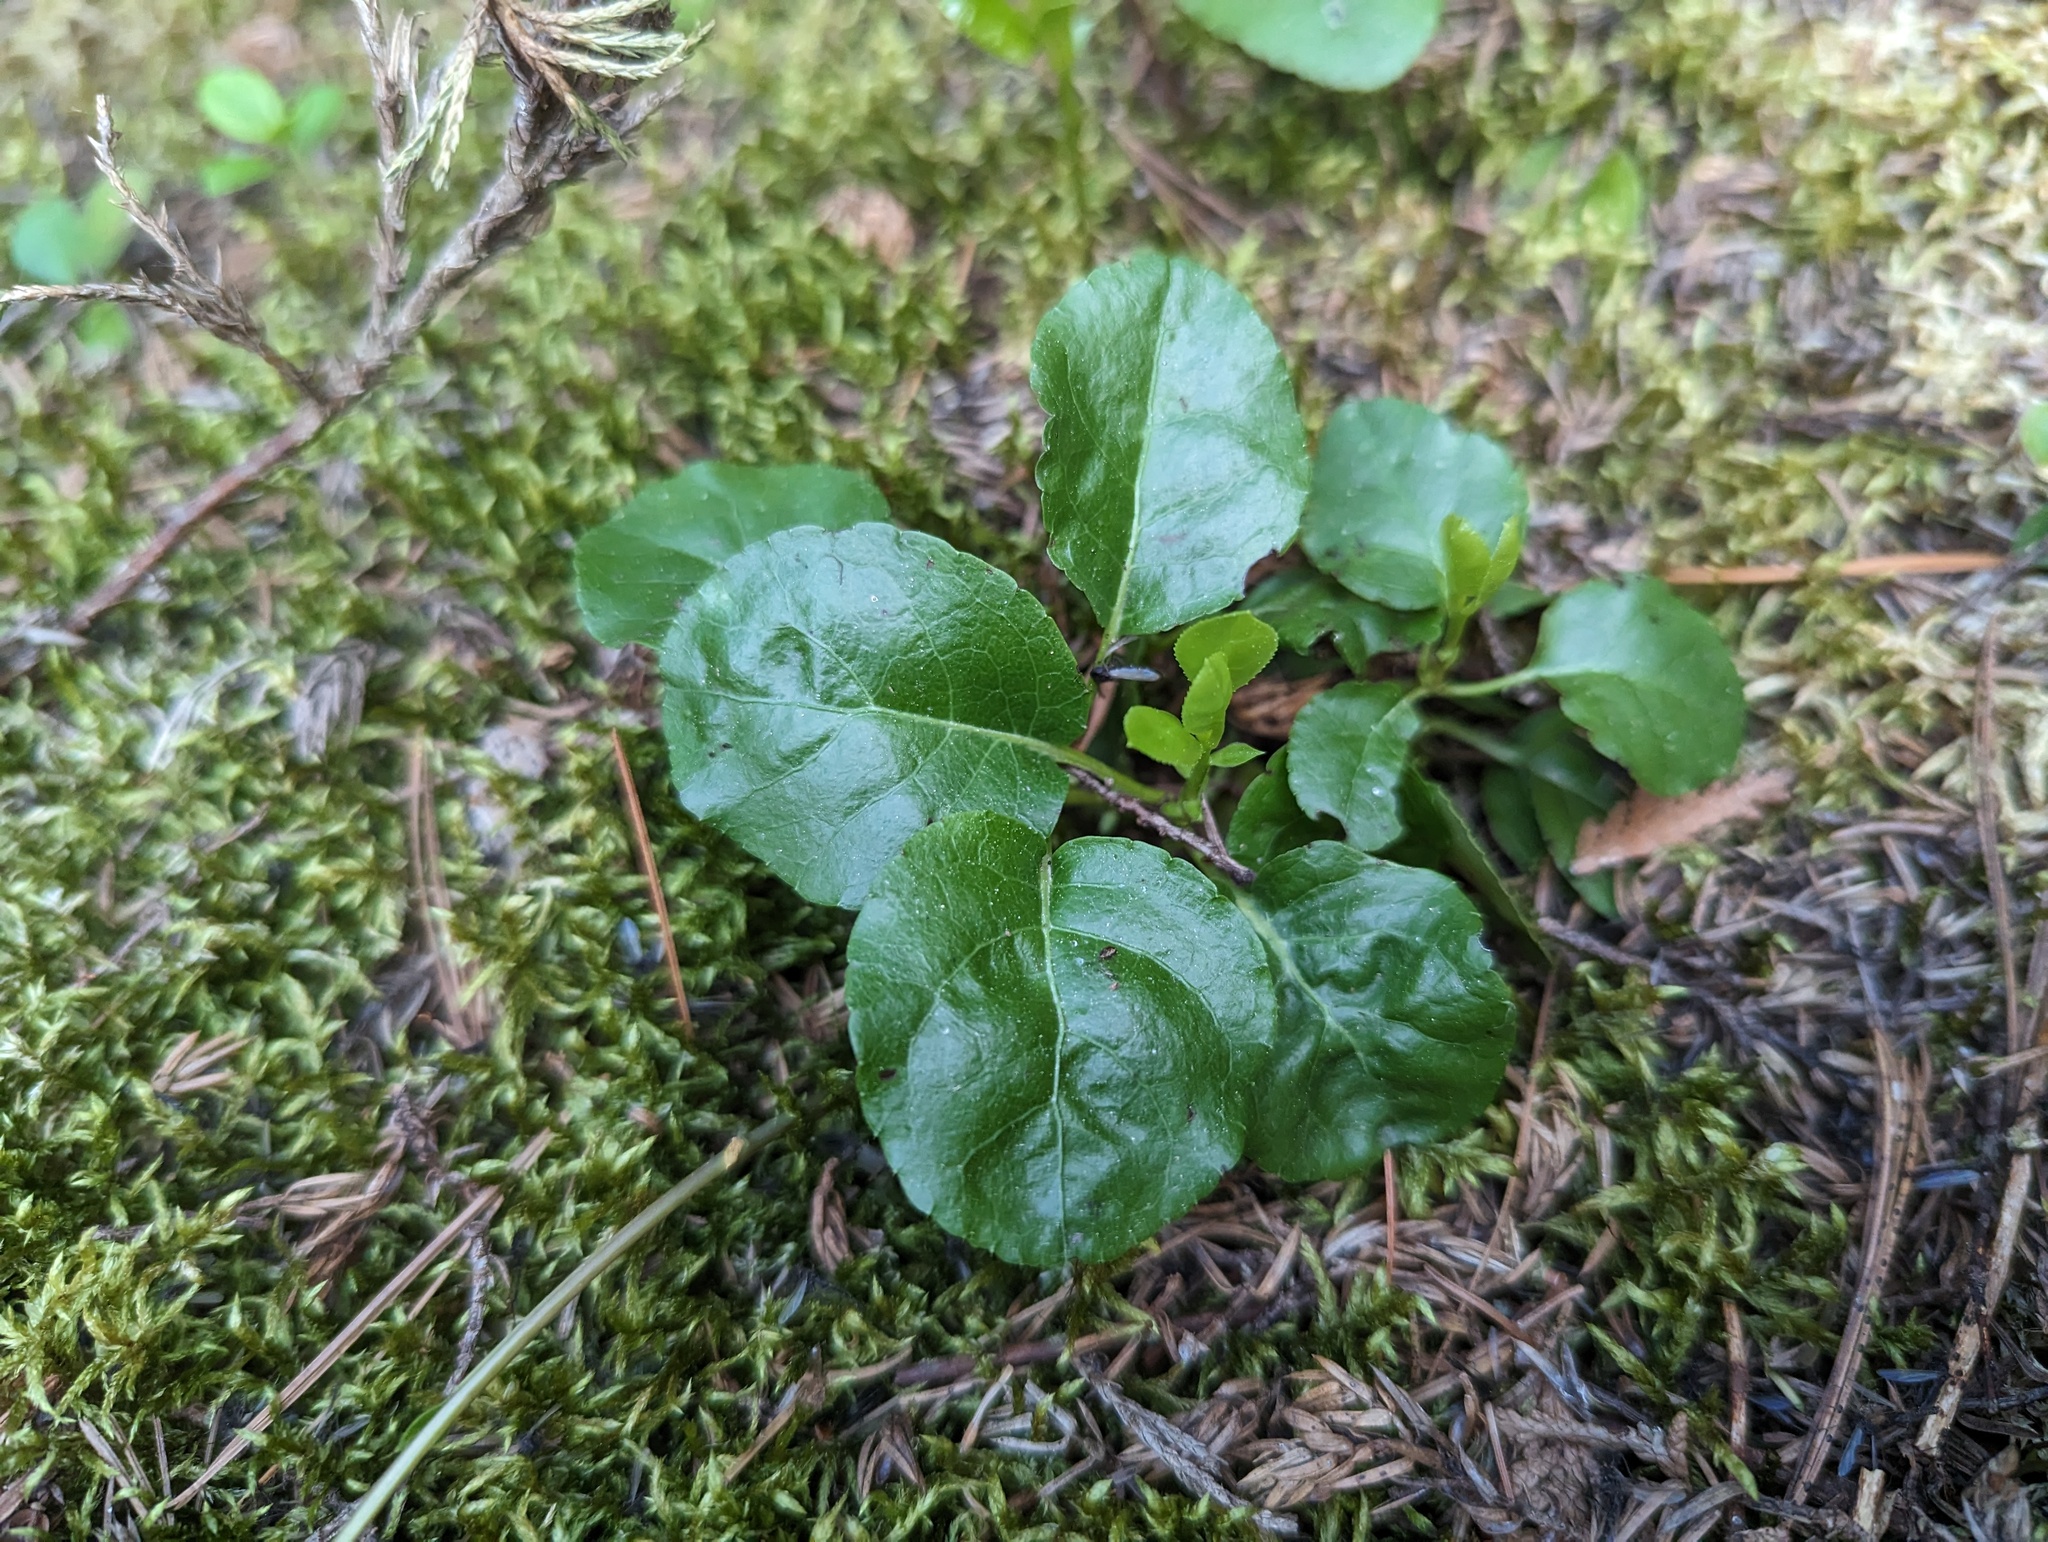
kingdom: Plantae
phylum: Tracheophyta
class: Magnoliopsida
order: Ericales
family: Ericaceae
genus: Orthilia
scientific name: Orthilia secunda
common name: One-sided orthilia
